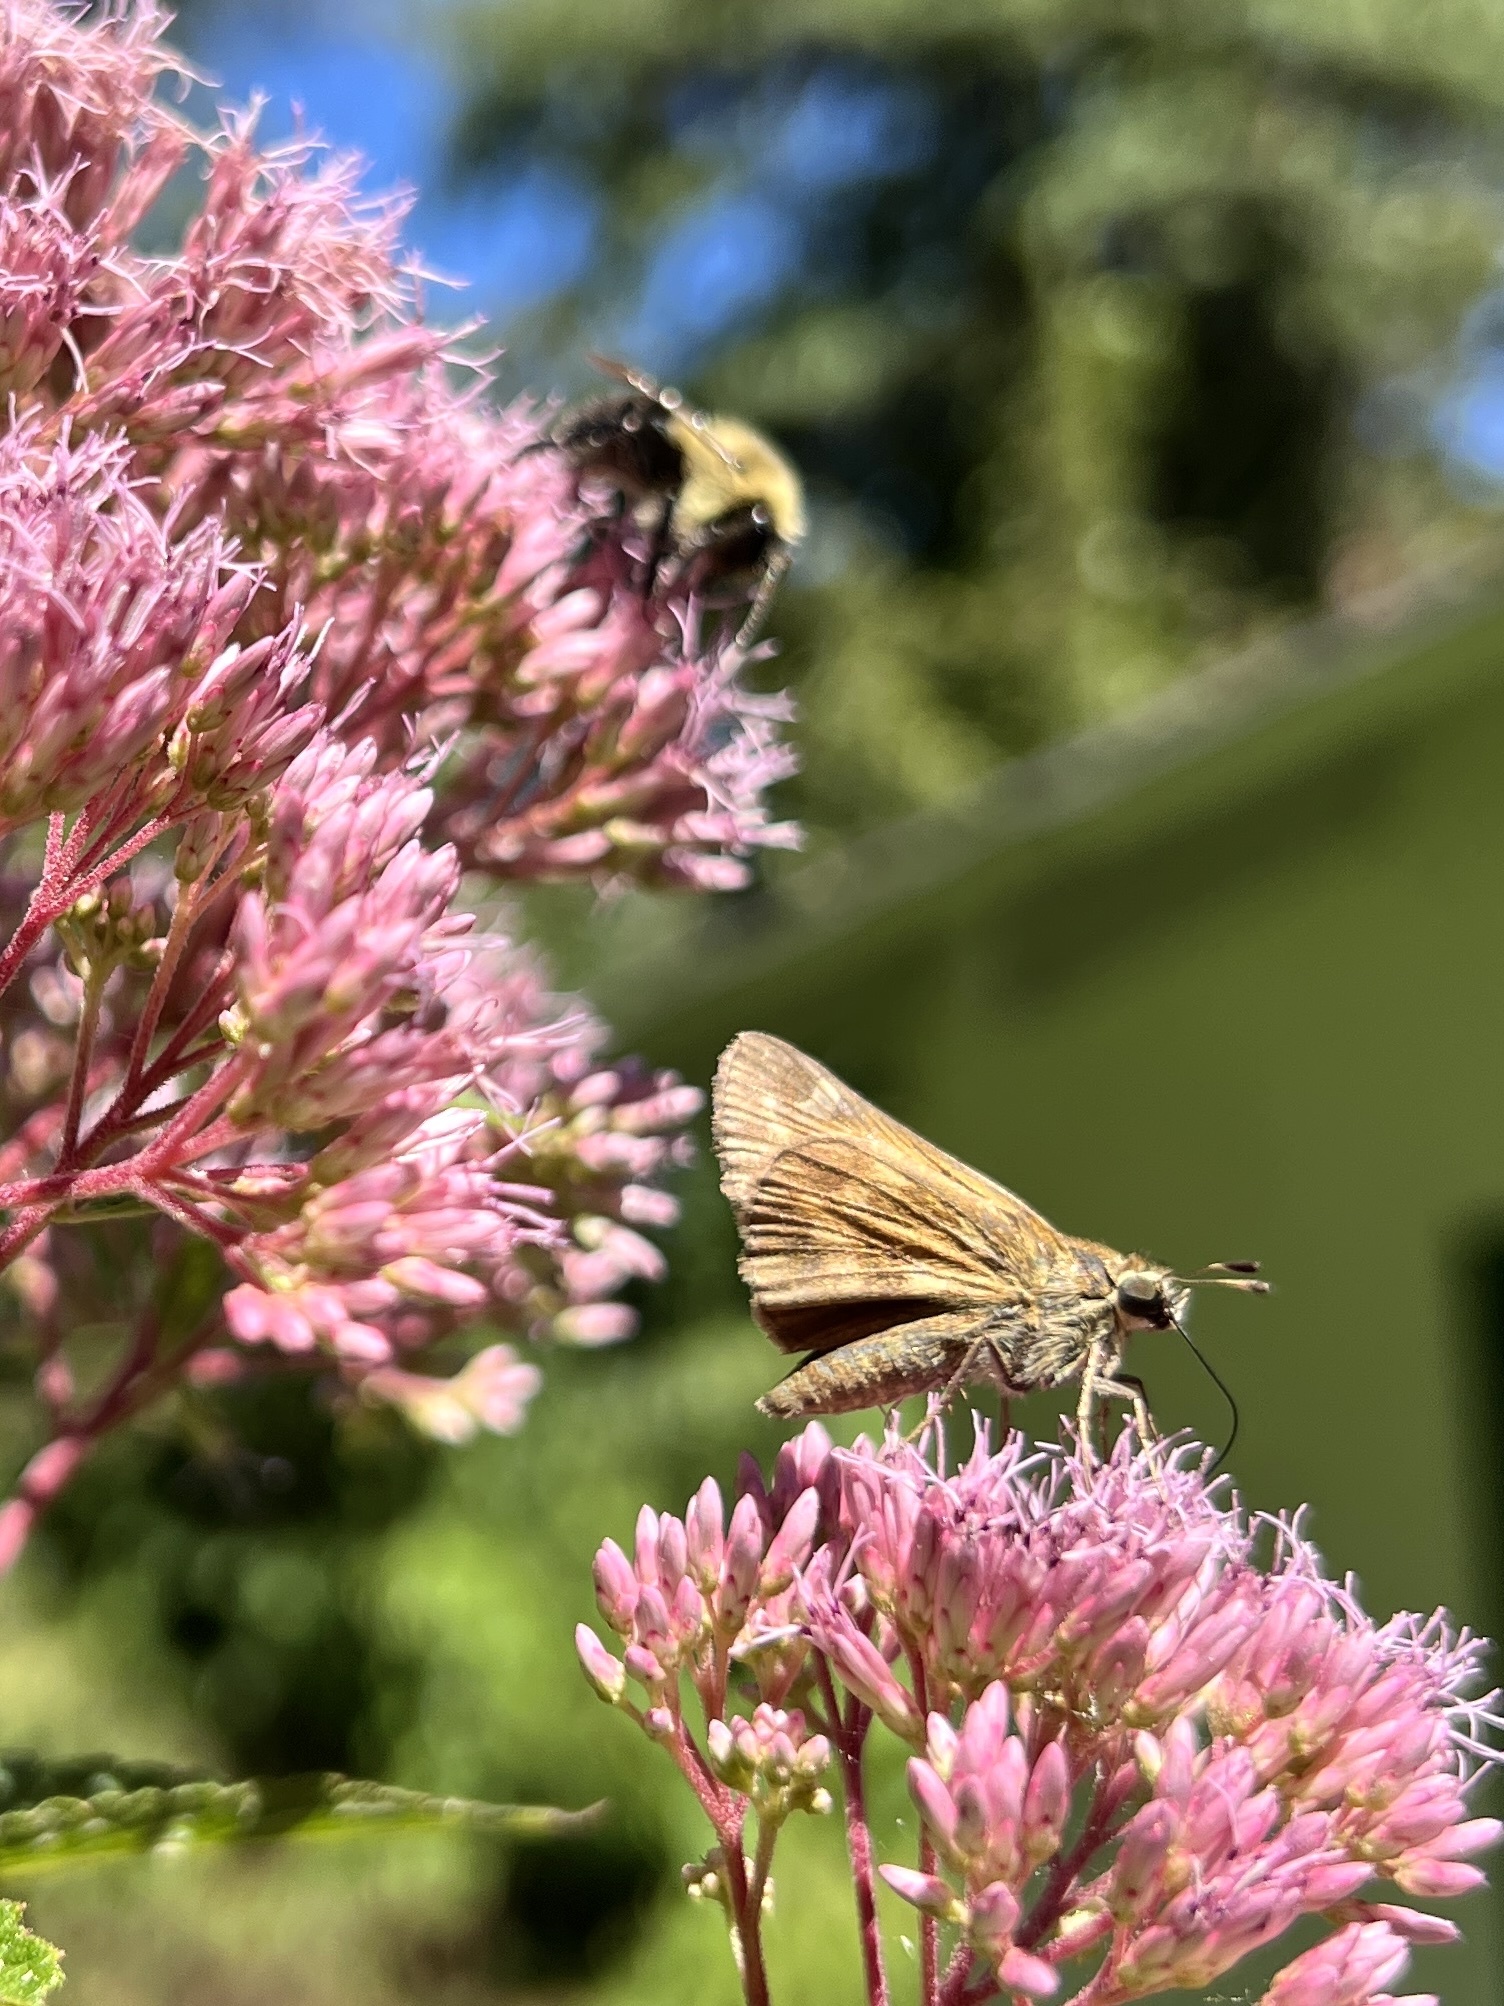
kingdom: Animalia
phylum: Arthropoda
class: Insecta
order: Lepidoptera
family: Hesperiidae
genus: Atalopedes
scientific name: Atalopedes
